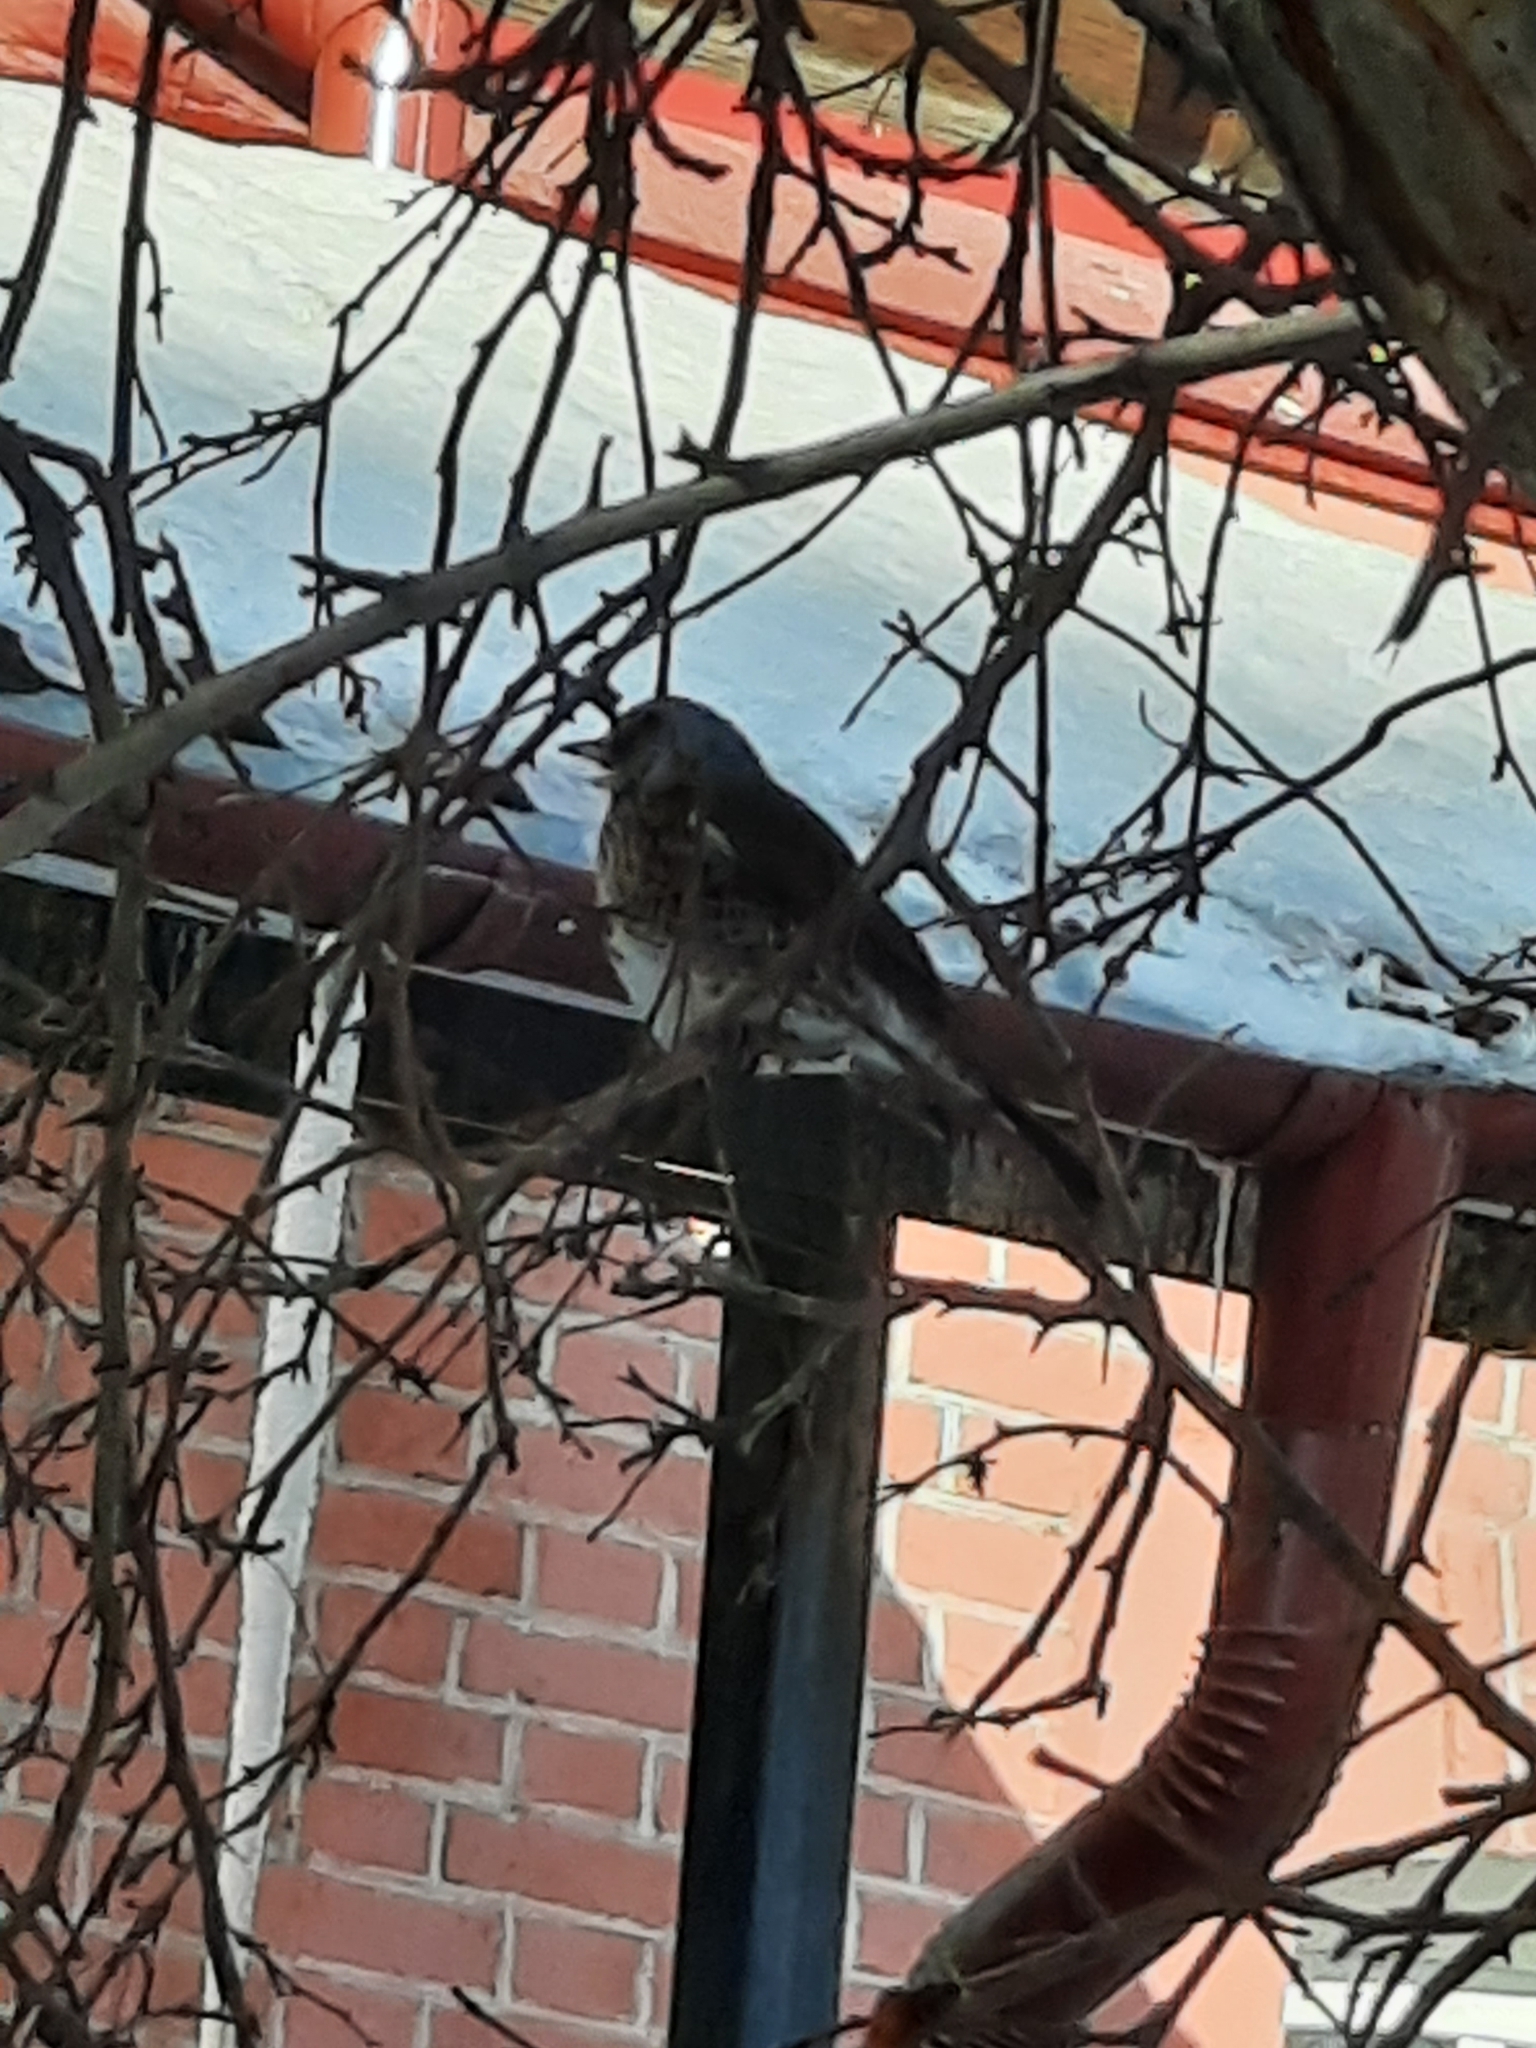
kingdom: Animalia
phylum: Chordata
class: Aves
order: Passeriformes
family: Turdidae
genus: Turdus
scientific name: Turdus pilaris
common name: Fieldfare
